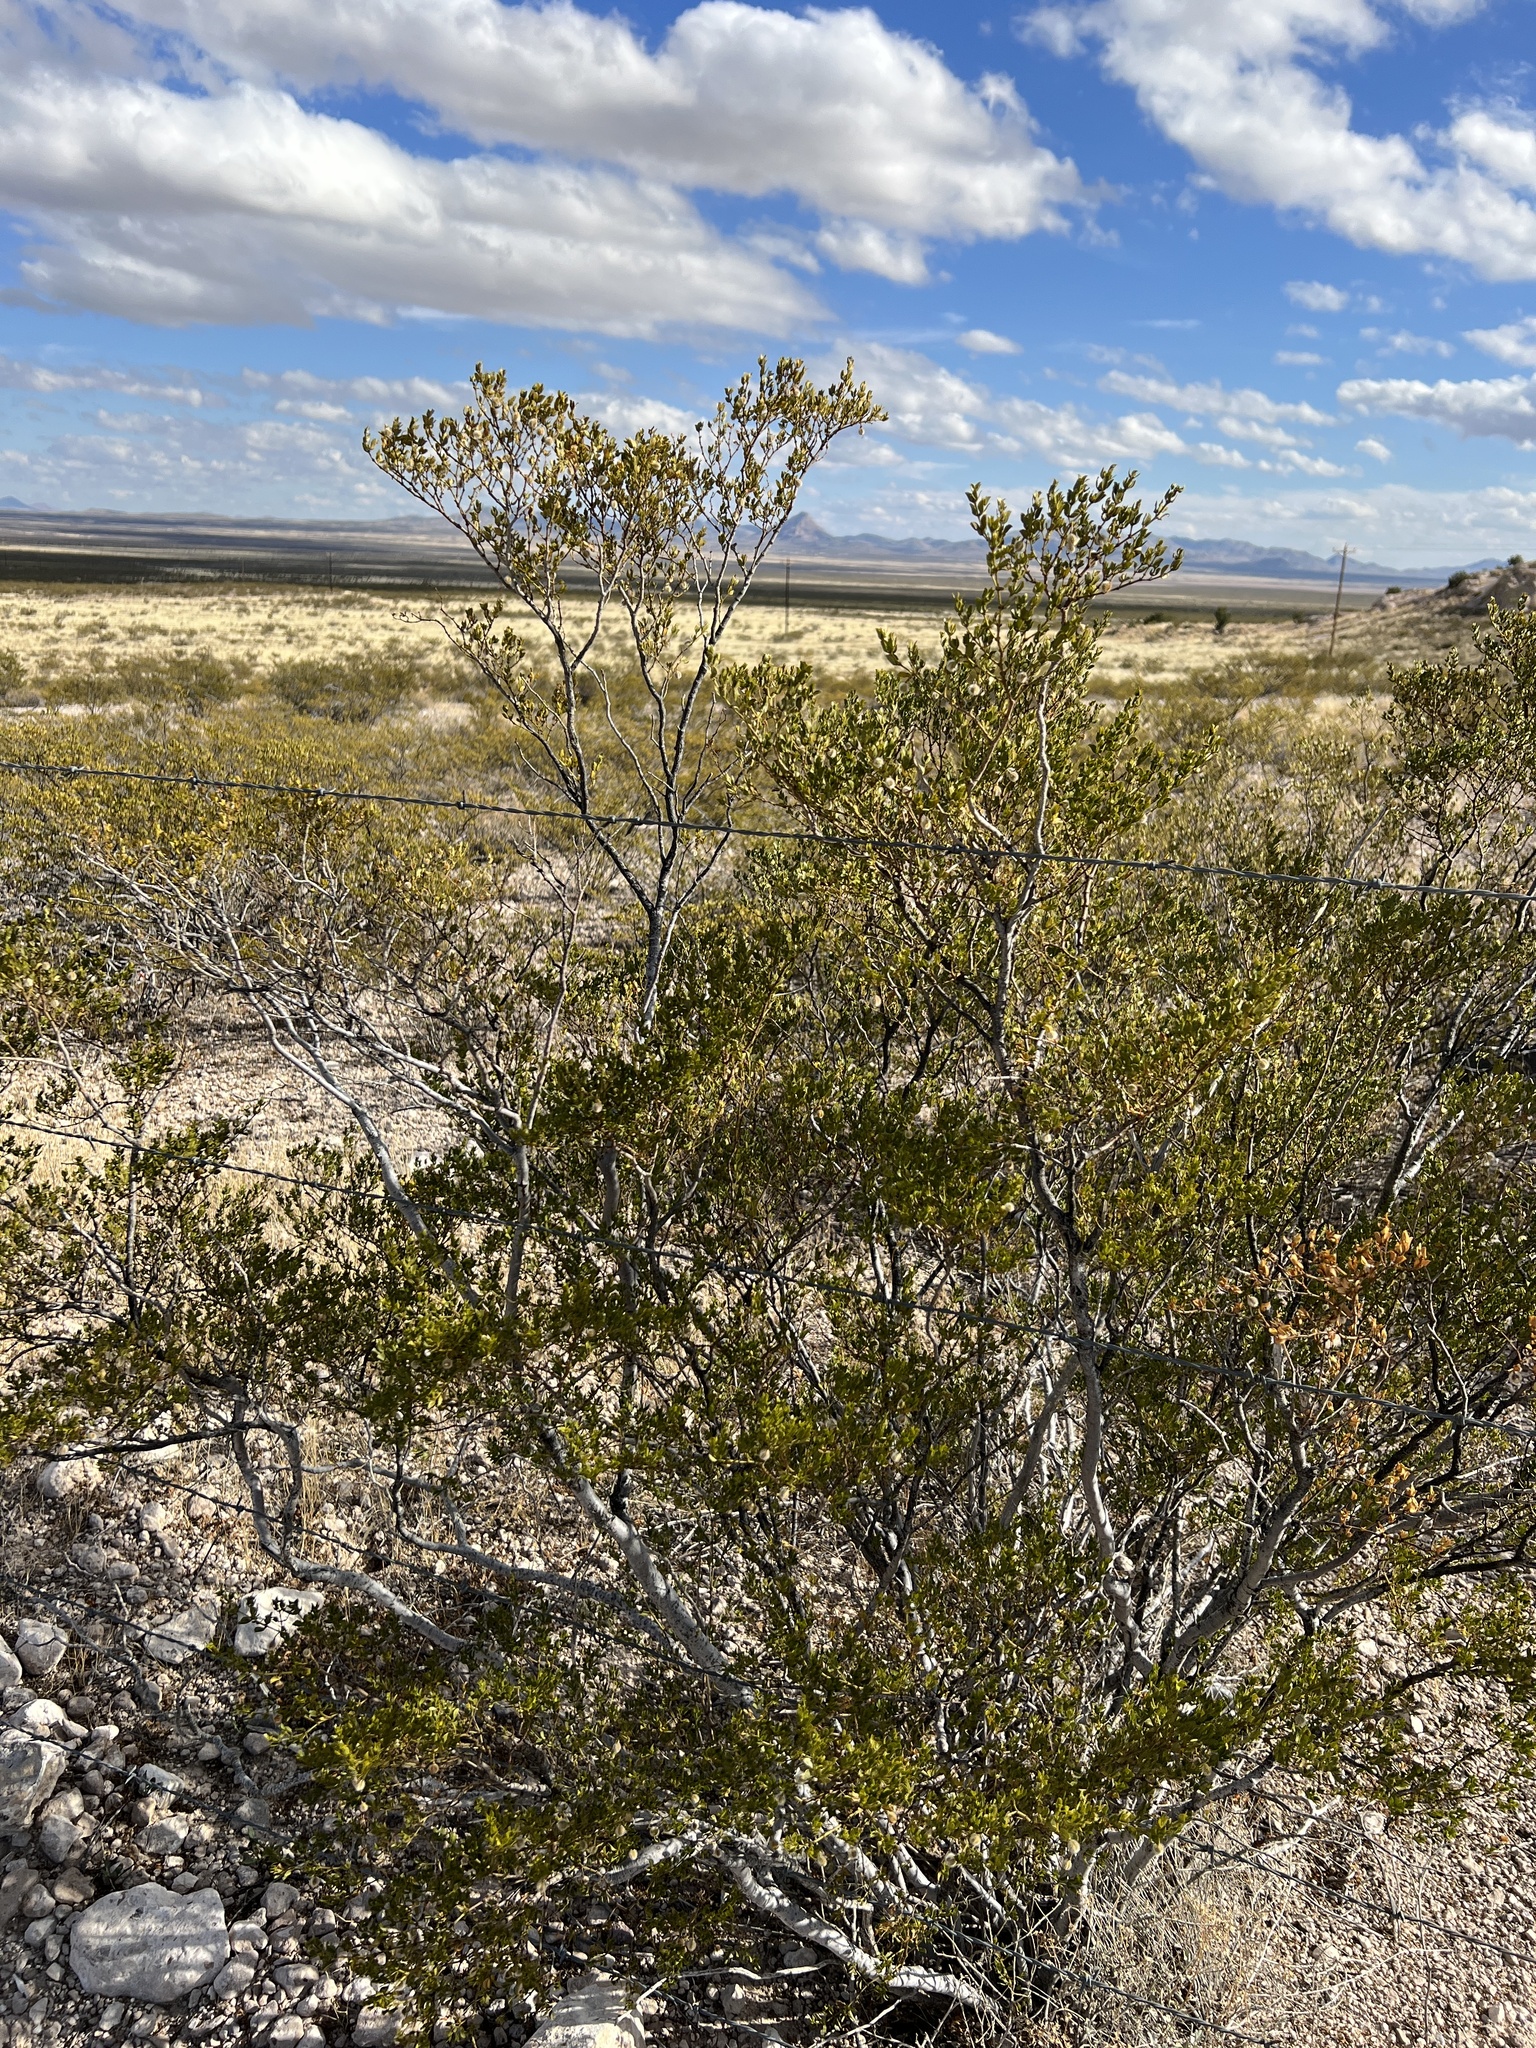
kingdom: Plantae
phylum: Tracheophyta
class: Magnoliopsida
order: Zygophyllales
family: Zygophyllaceae
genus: Larrea
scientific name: Larrea tridentata
